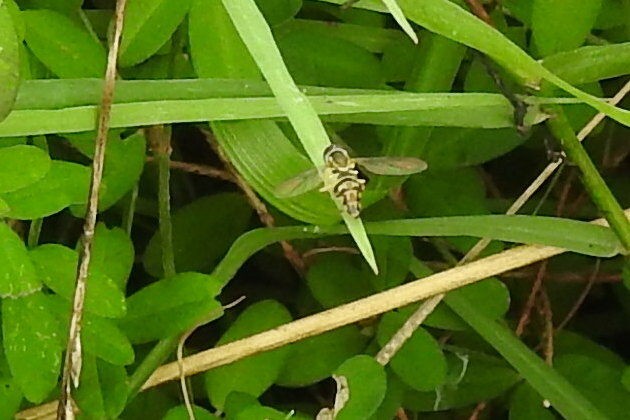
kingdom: Animalia
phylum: Arthropoda
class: Insecta
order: Diptera
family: Syrphidae
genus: Toxomerus
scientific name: Toxomerus geminatus
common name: Eastern calligrapher
